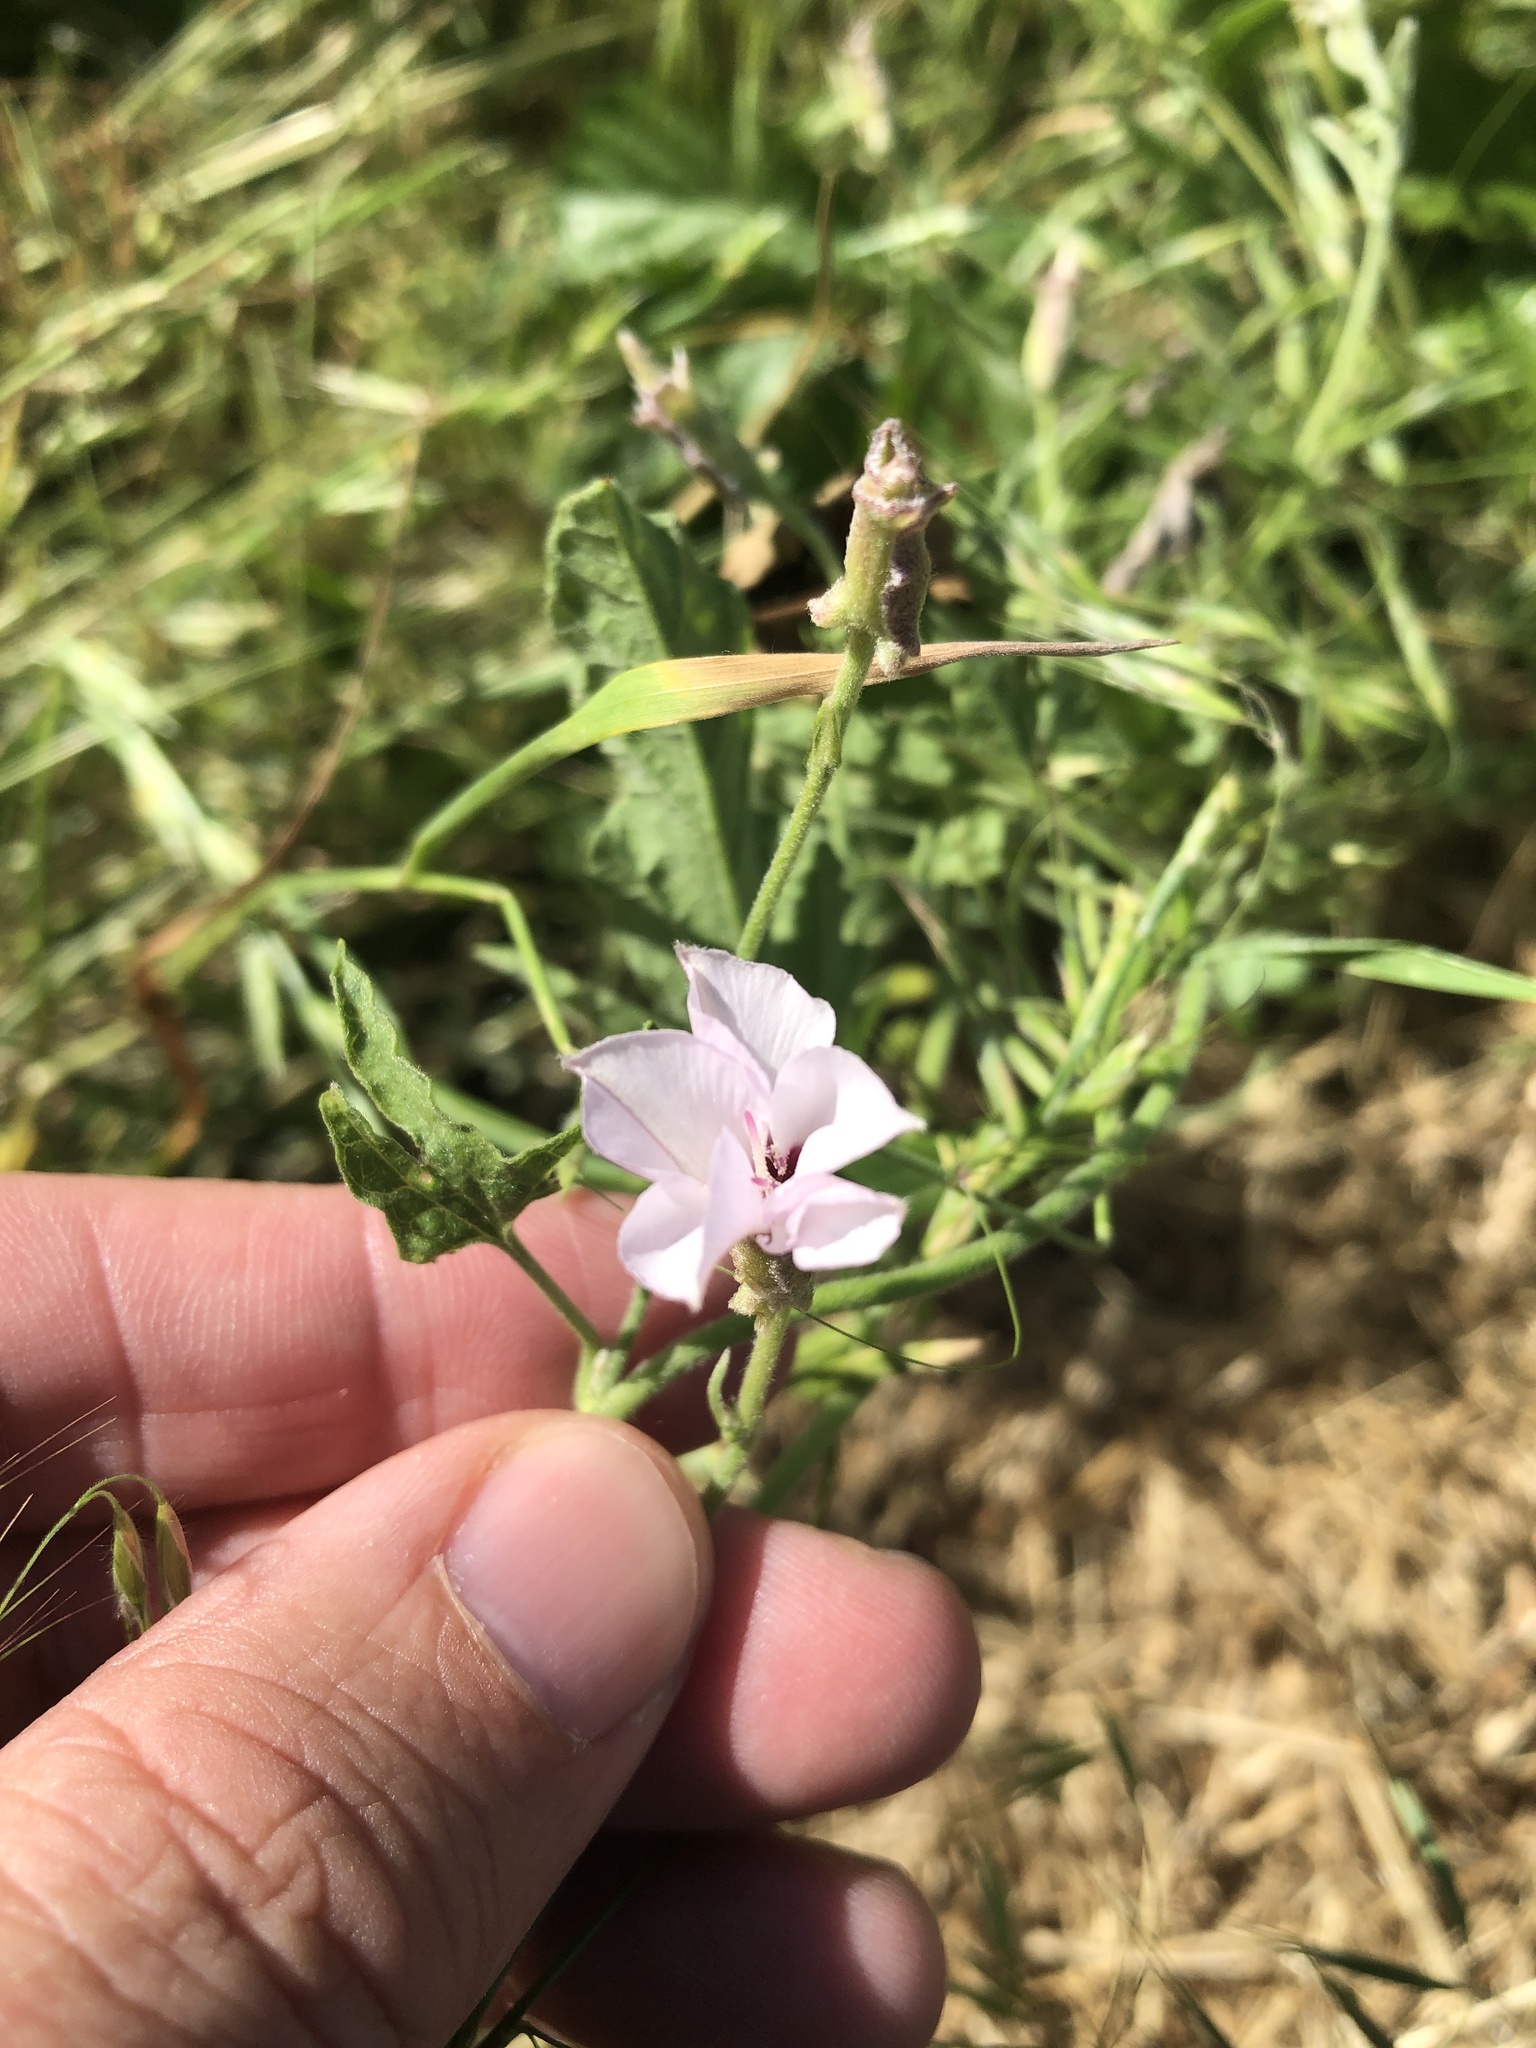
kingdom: Plantae
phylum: Tracheophyta
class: Magnoliopsida
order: Solanales
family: Convolvulaceae
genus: Convolvulus
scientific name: Convolvulus equitans
